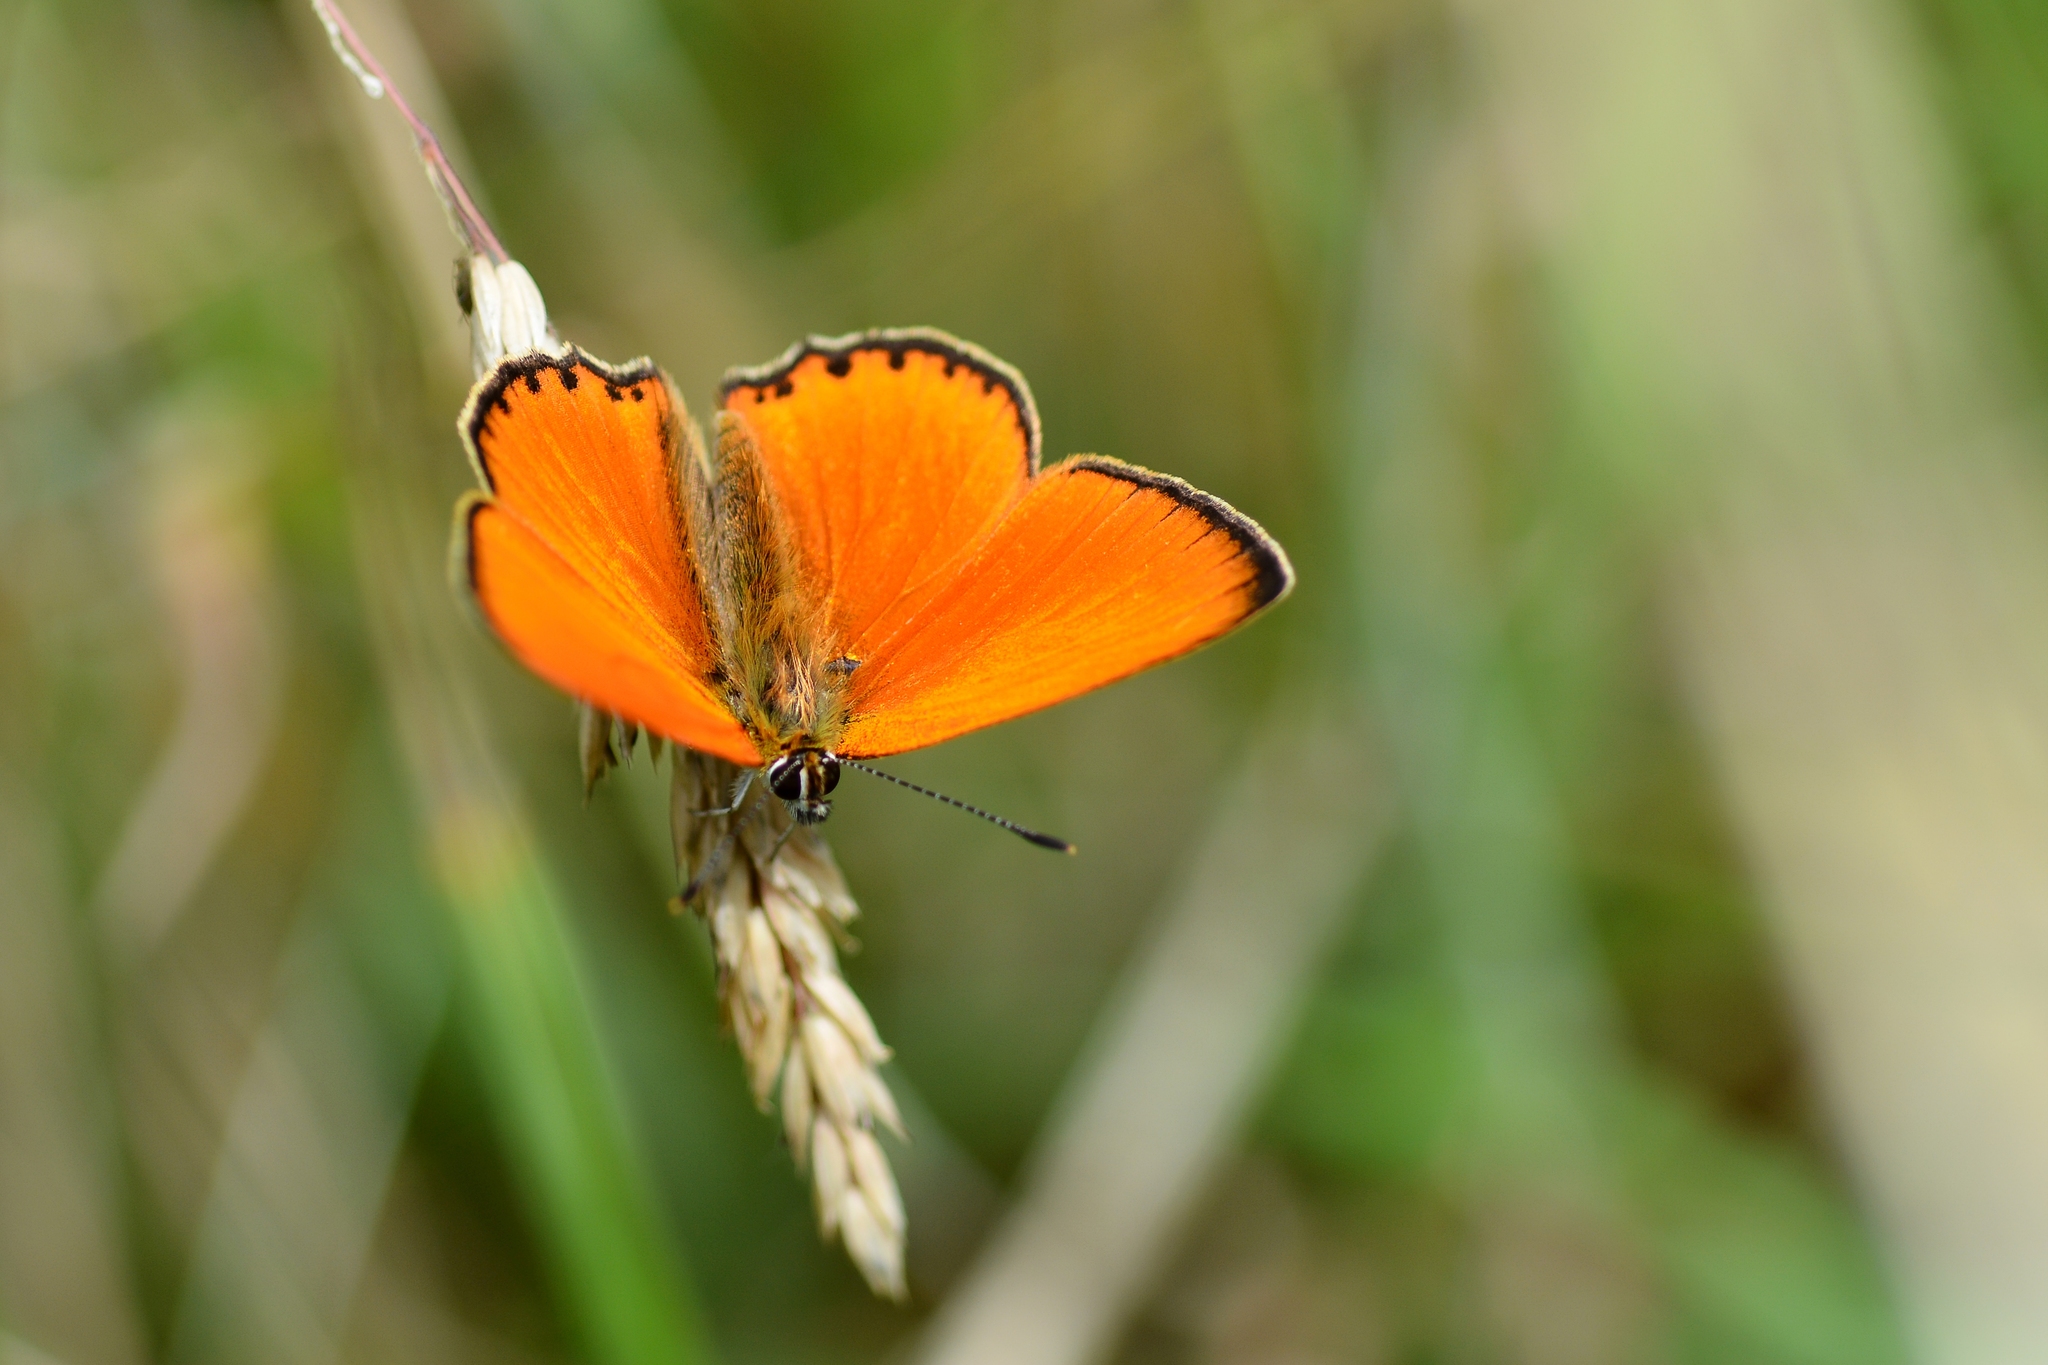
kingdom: Animalia
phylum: Arthropoda
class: Insecta
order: Lepidoptera
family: Lycaenidae
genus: Lycaena
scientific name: Lycaena virgaureae
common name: Scarce copper
